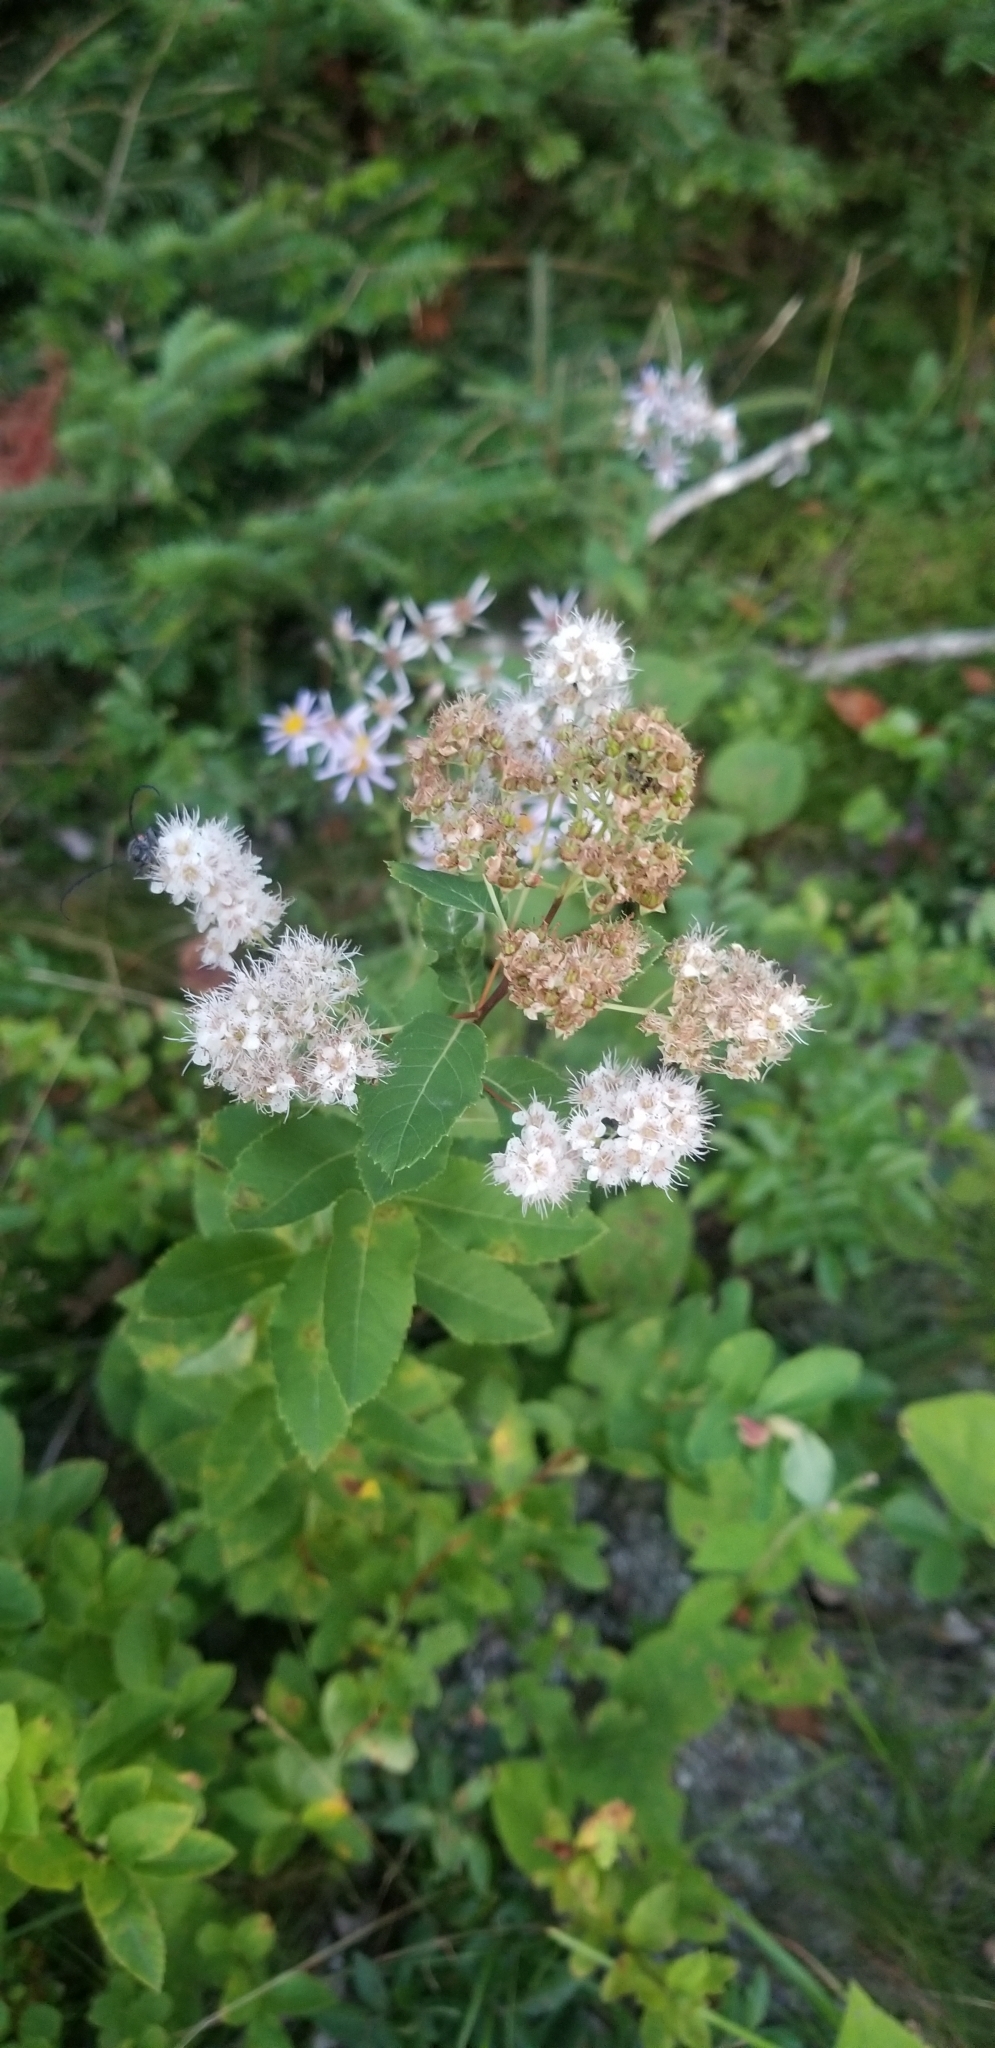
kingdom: Plantae
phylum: Tracheophyta
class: Magnoliopsida
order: Rosales
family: Rosaceae
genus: Spiraea
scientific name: Spiraea alba
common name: Pale bridewort
